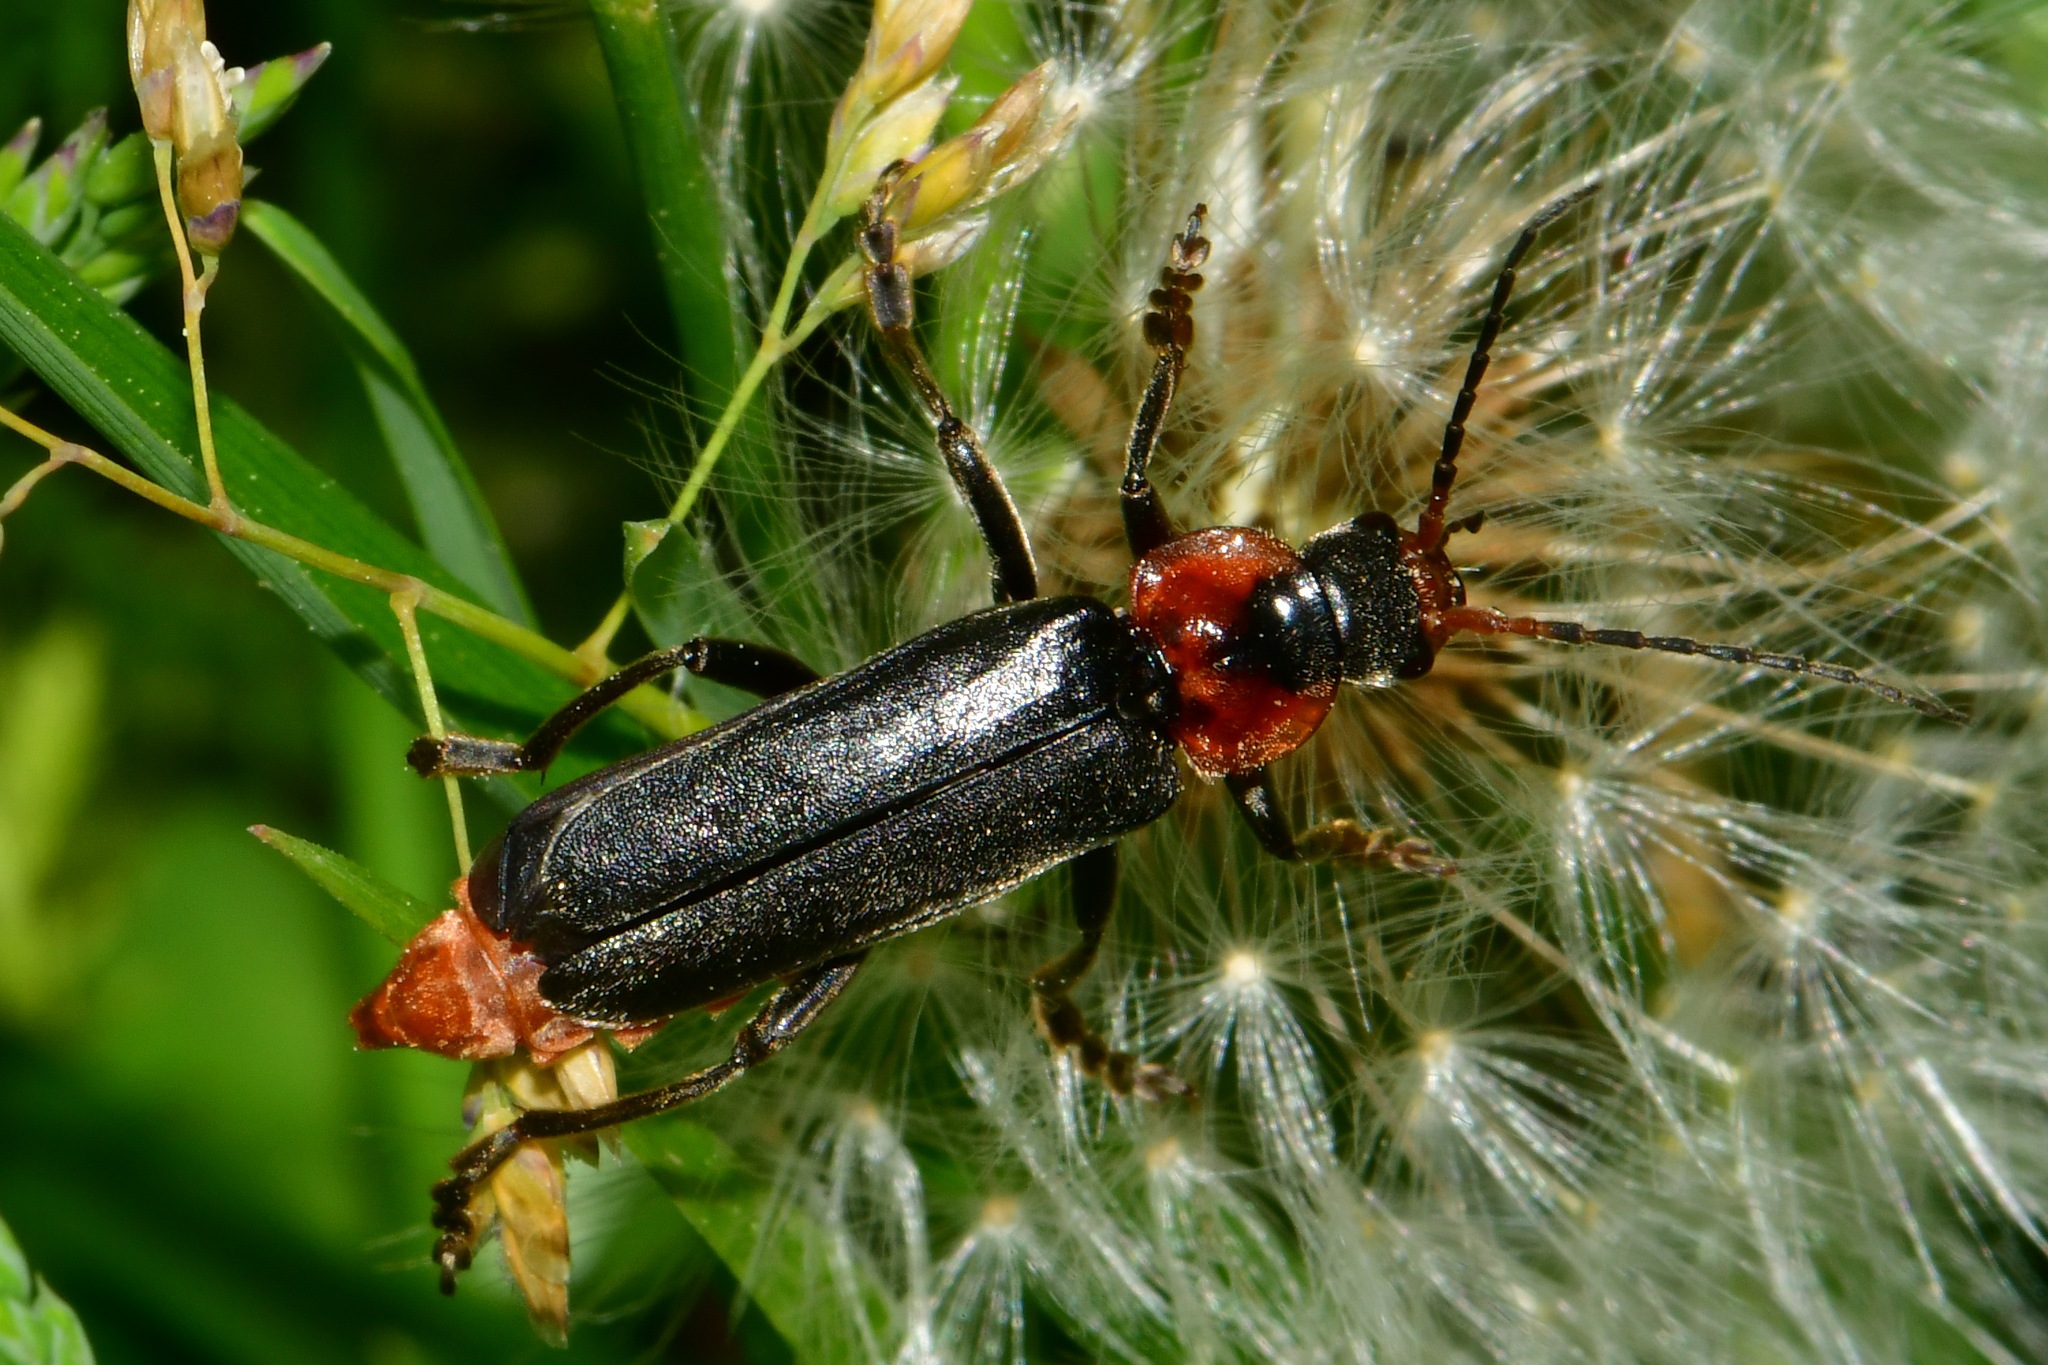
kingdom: Animalia
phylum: Arthropoda
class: Insecta
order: Coleoptera
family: Cantharidae
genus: Cantharis
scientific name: Cantharis fusca
